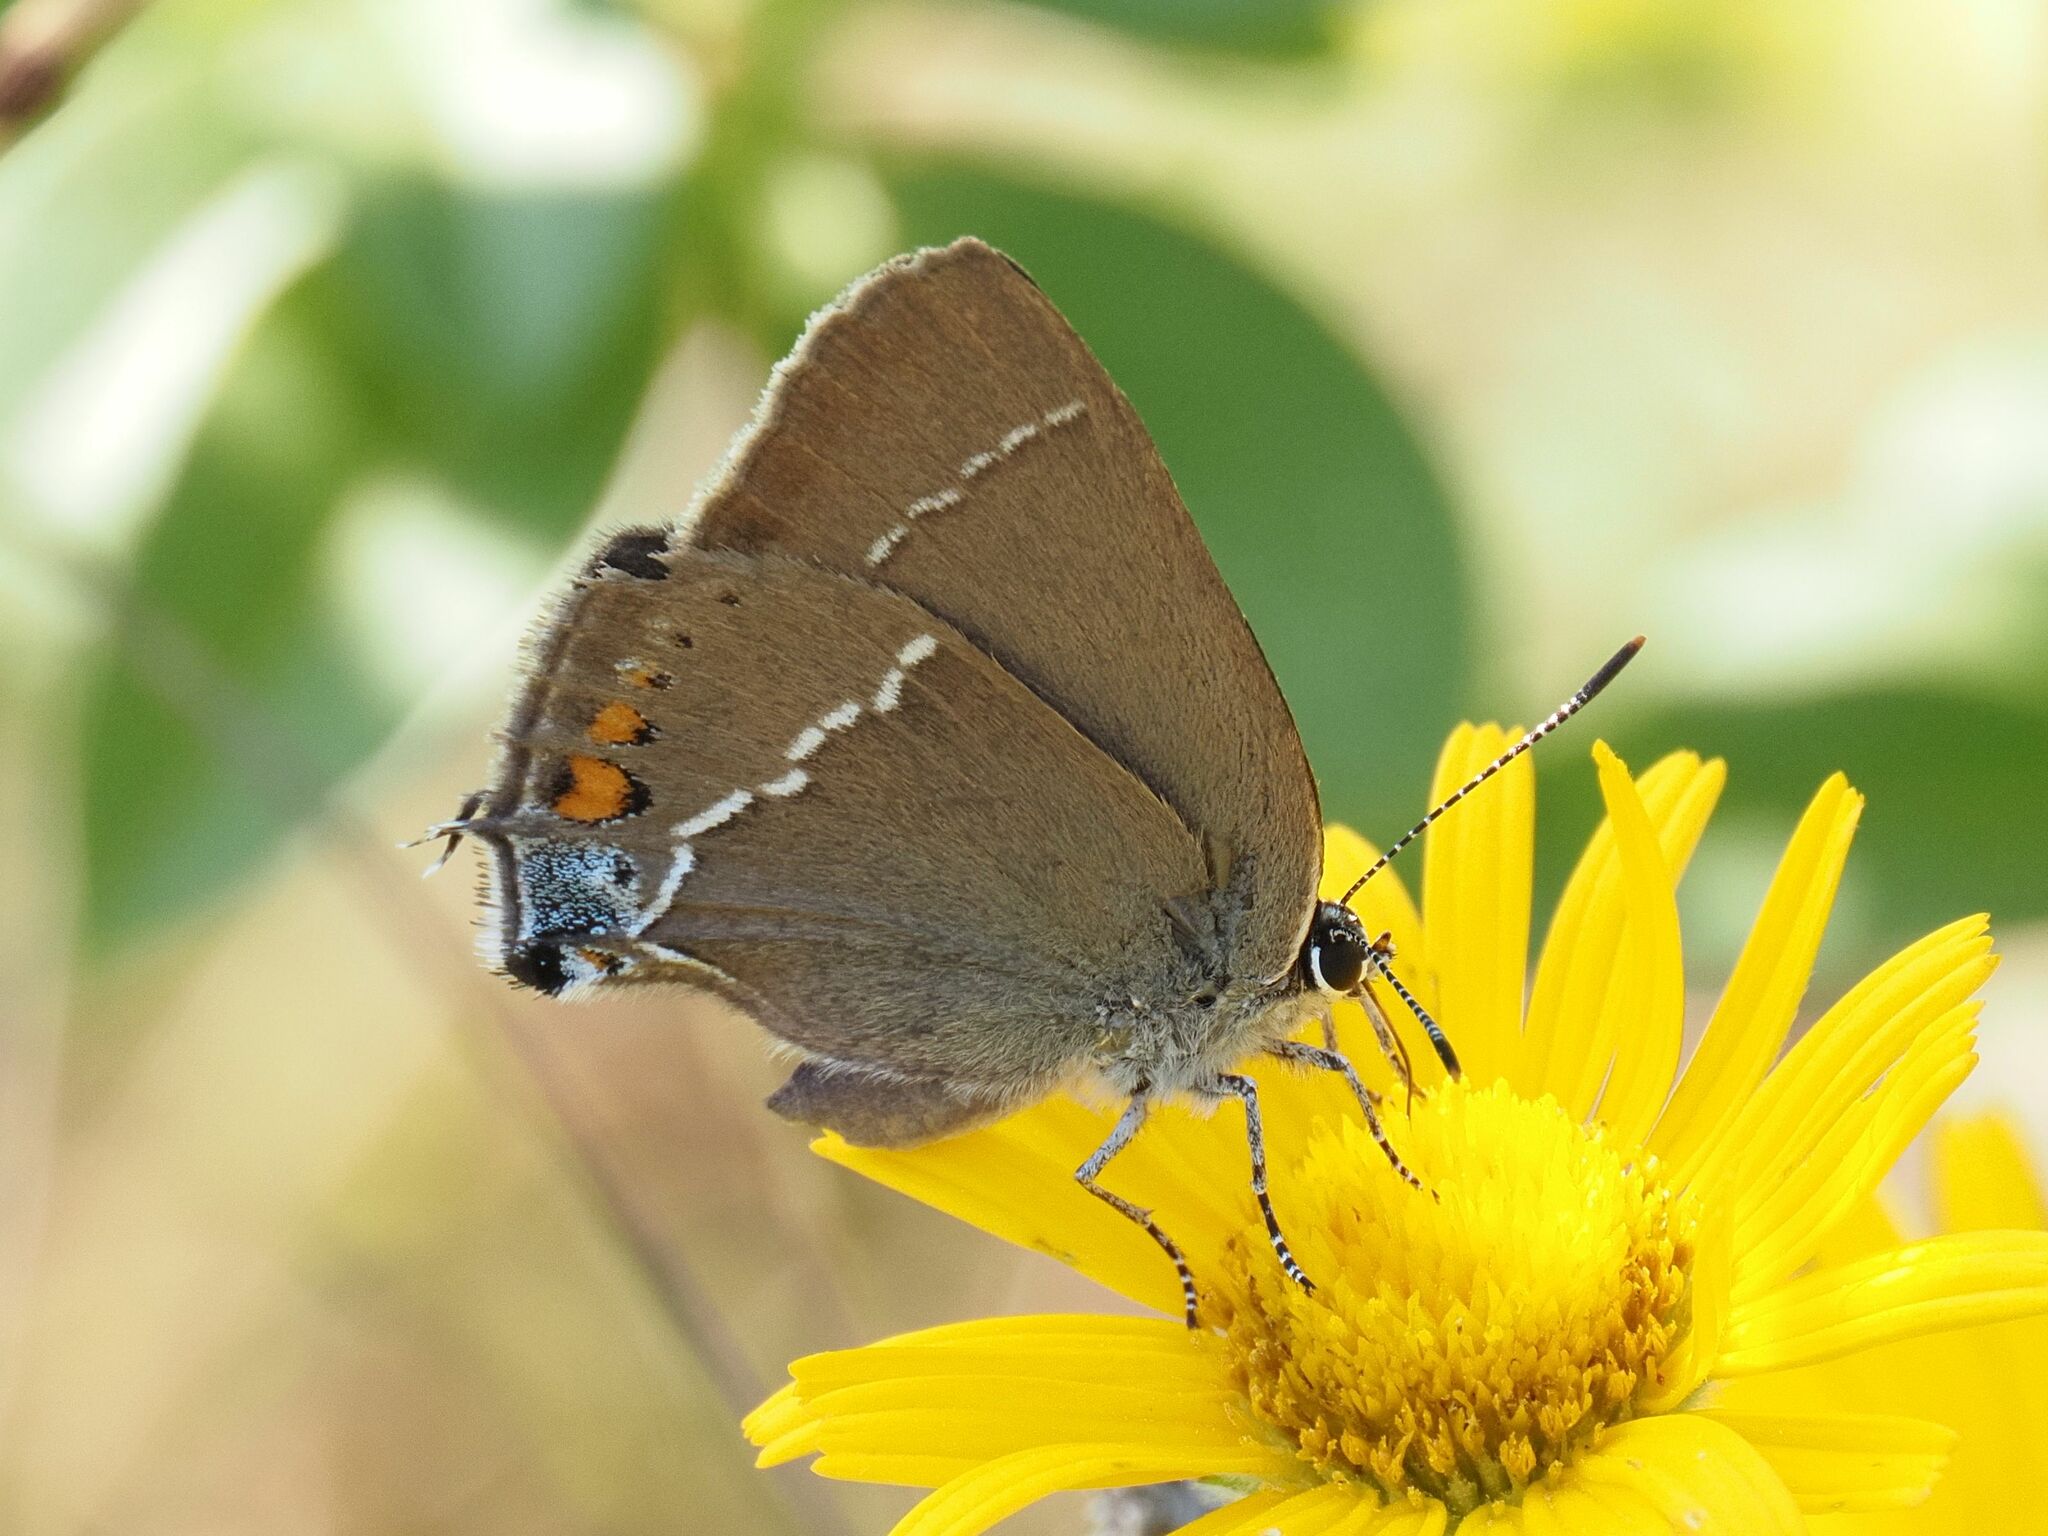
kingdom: Animalia
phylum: Arthropoda
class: Insecta
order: Lepidoptera
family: Lycaenidae
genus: Tuttiola
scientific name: Tuttiola spini
